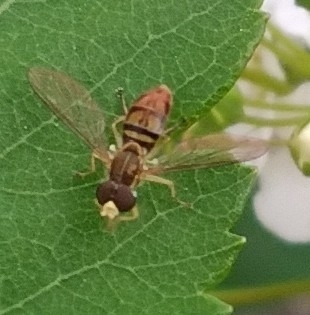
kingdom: Animalia
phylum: Arthropoda
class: Insecta
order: Diptera
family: Syrphidae
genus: Toxomerus
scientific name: Toxomerus marginatus
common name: Syrphid fly
